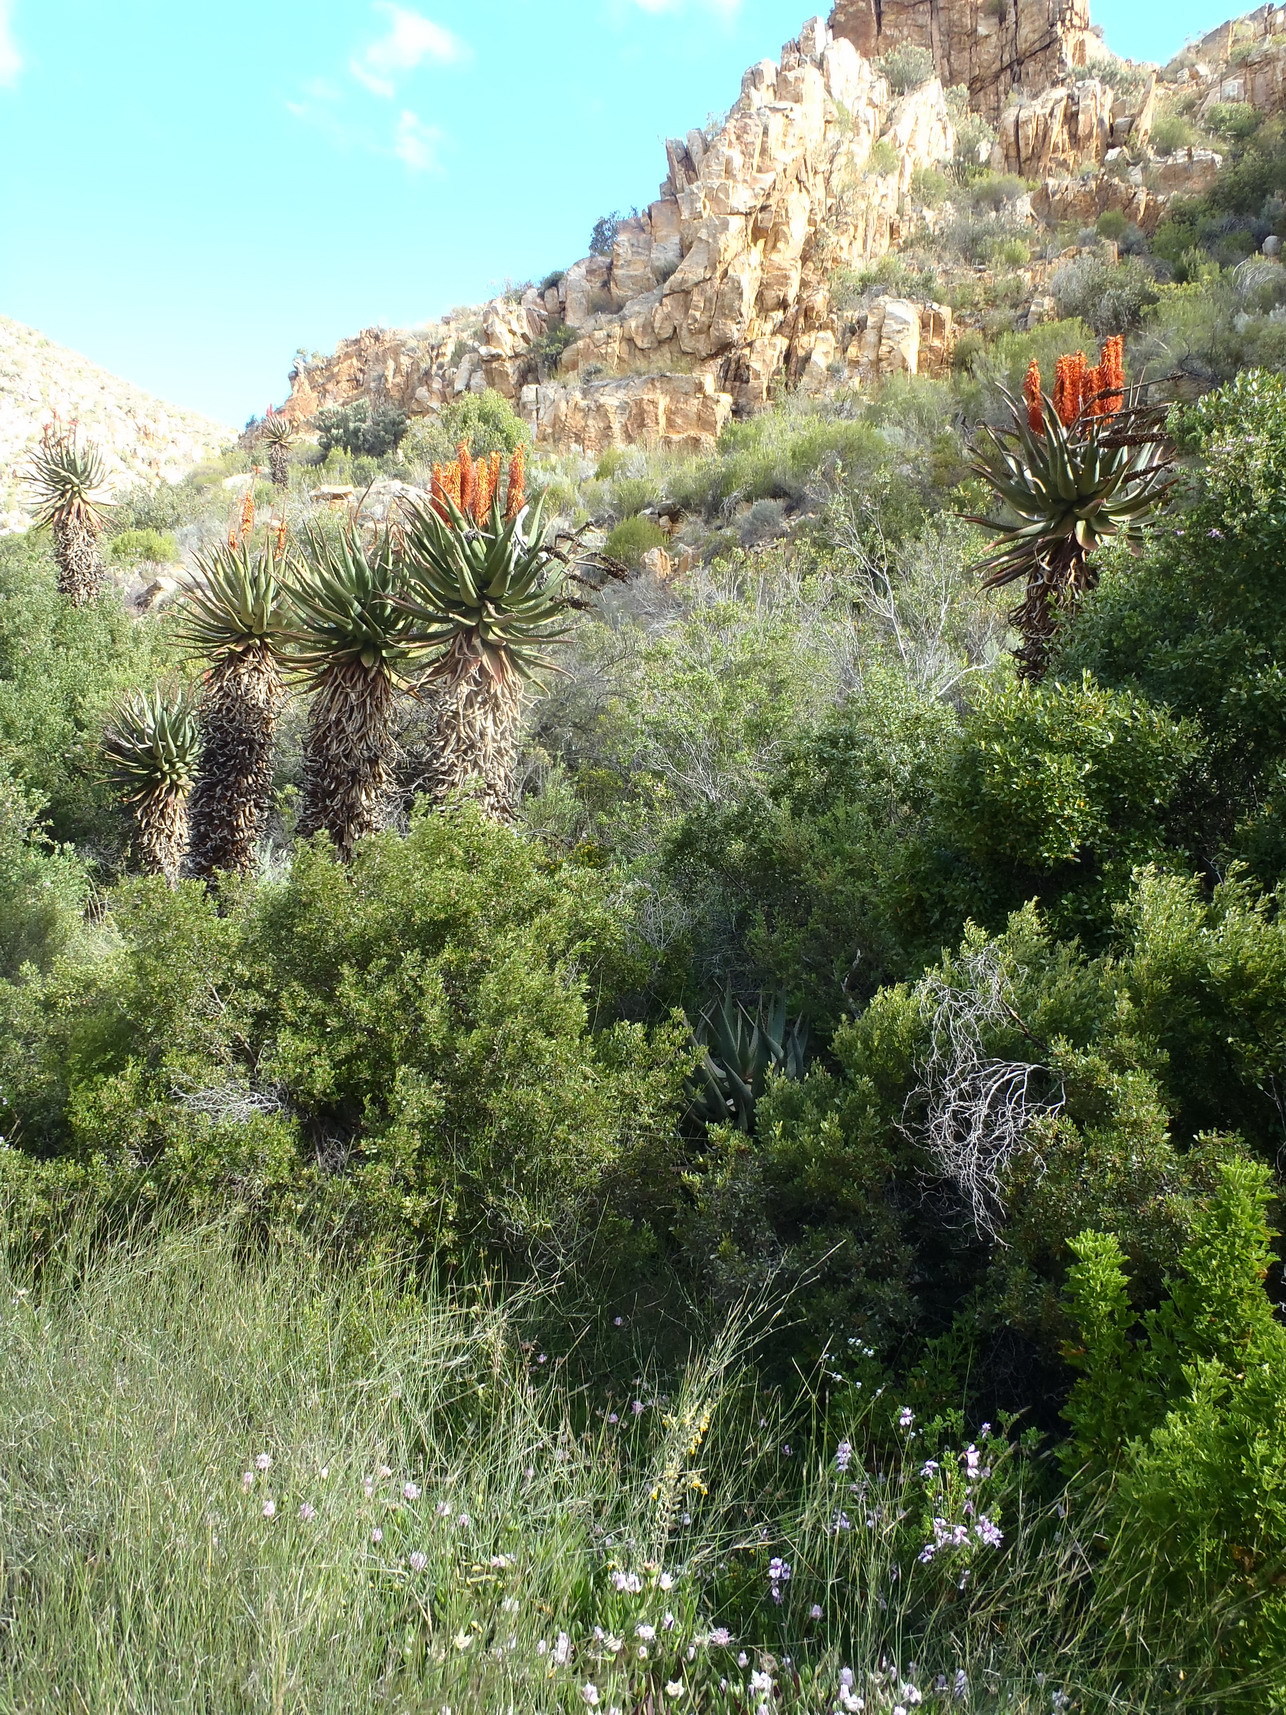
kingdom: Plantae
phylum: Tracheophyta
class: Liliopsida
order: Asparagales
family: Asphodelaceae
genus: Aloe
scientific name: Aloe ferox
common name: Bitter aloe
